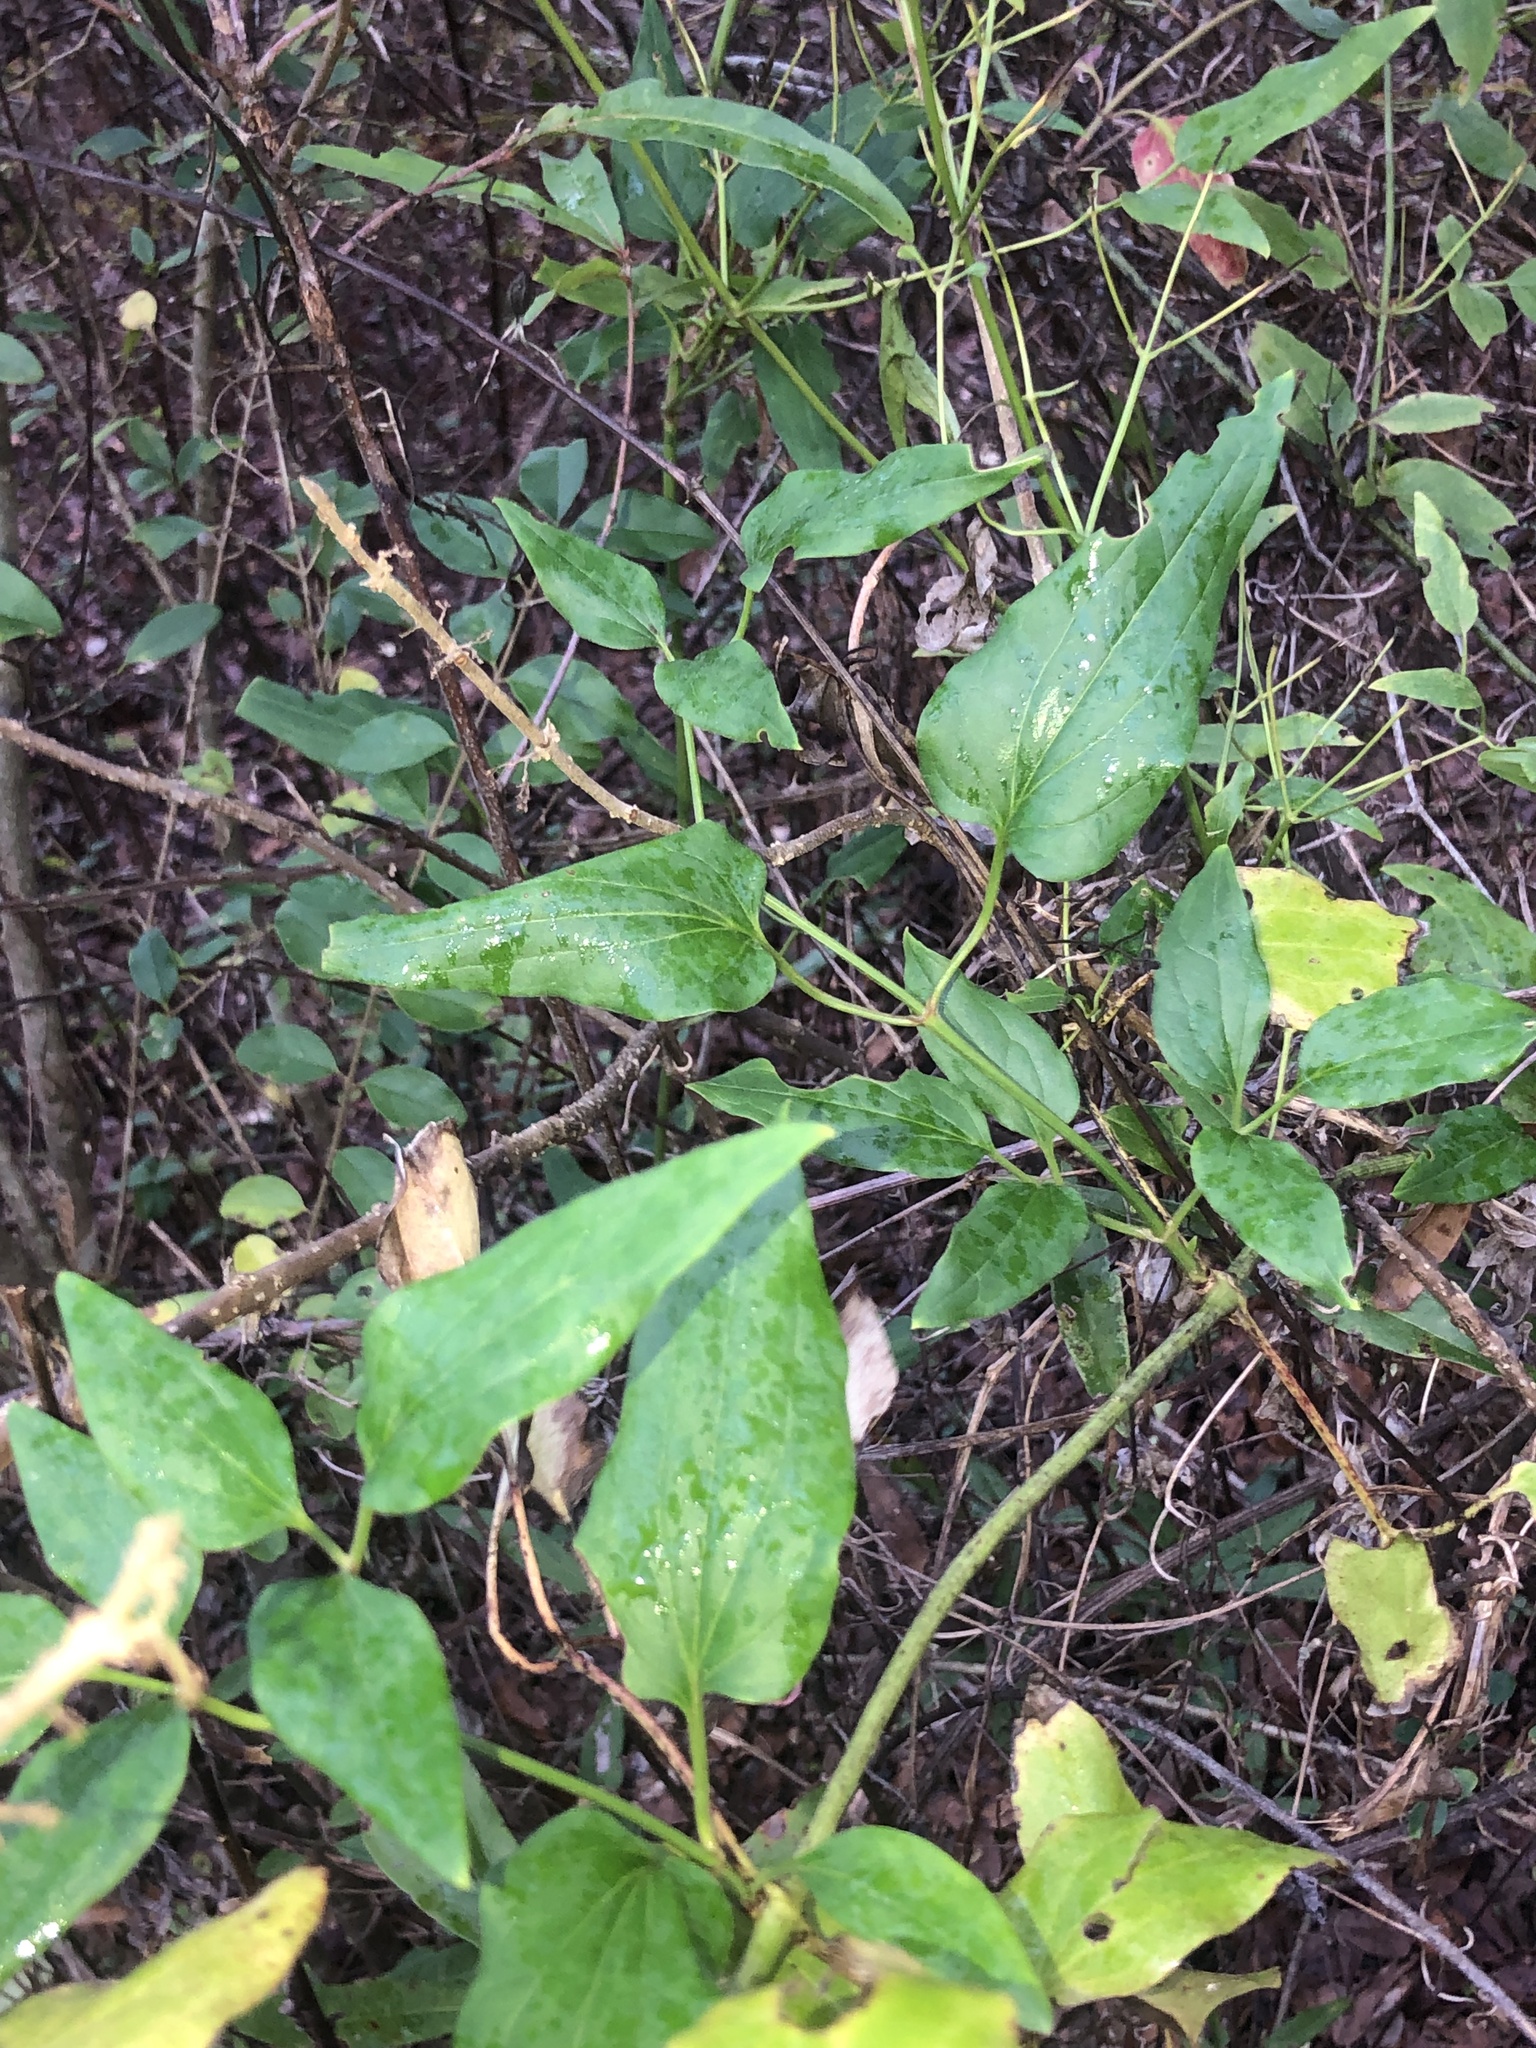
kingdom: Plantae
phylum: Tracheophyta
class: Magnoliopsida
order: Ranunculales
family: Ranunculaceae
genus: Clematis
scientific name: Clematis terniflora
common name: Sweet autumn clematis
